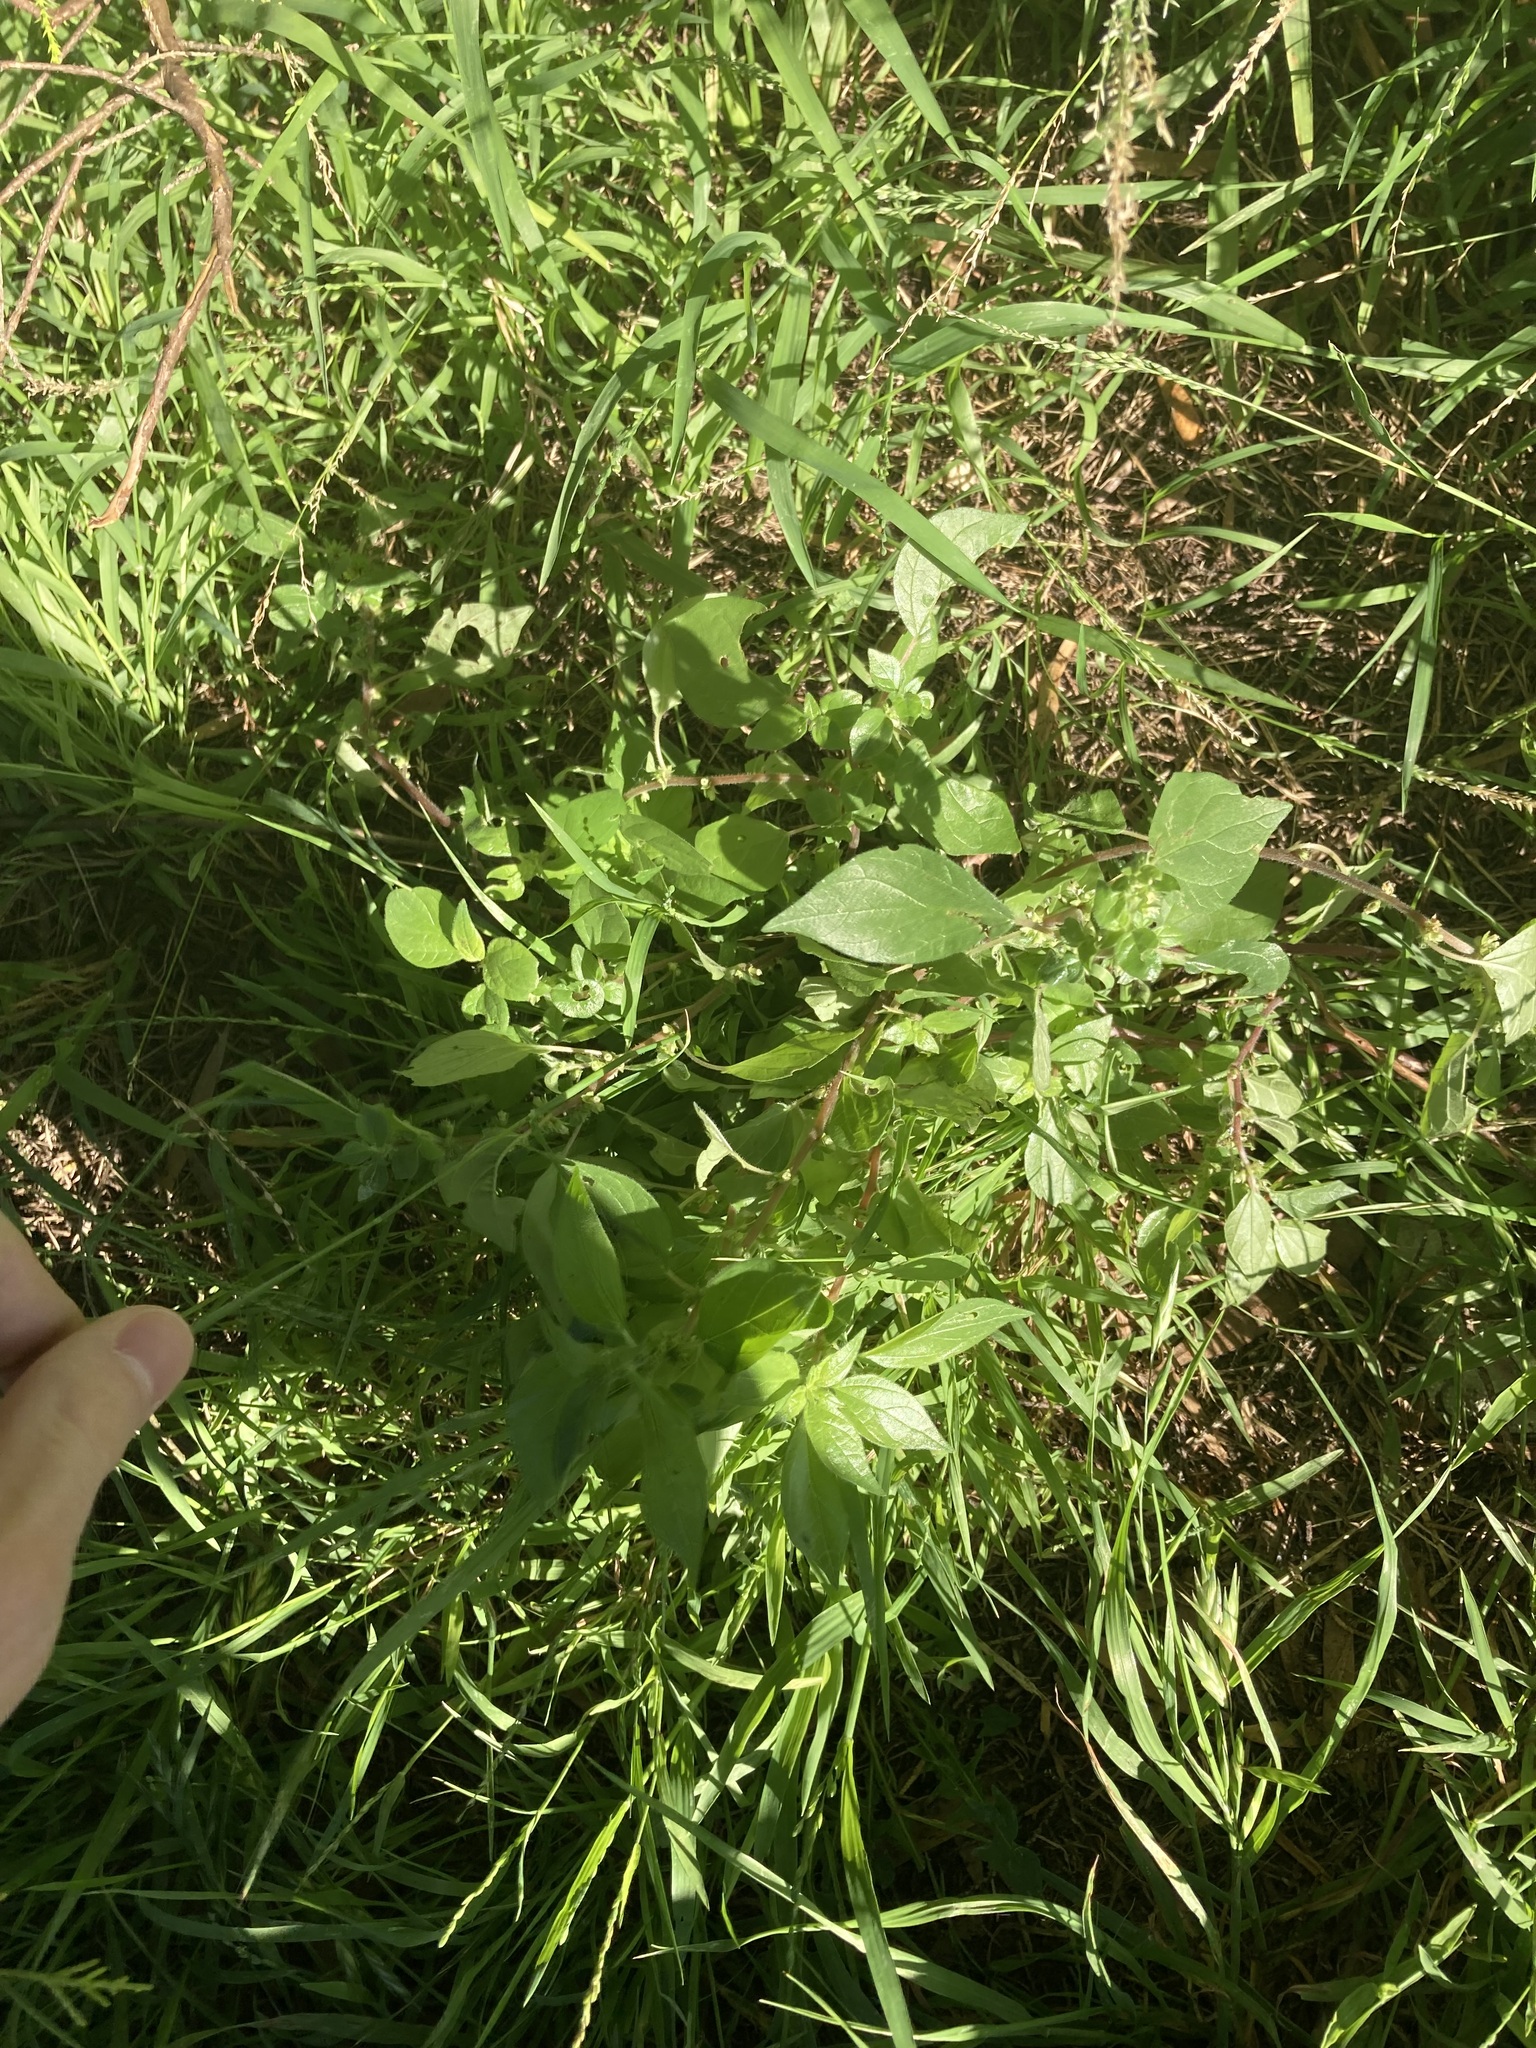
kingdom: Plantae
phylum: Tracheophyta
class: Magnoliopsida
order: Rosales
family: Urticaceae
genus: Parietaria
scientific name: Parietaria judaica
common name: Pellitory-of-the-wall
